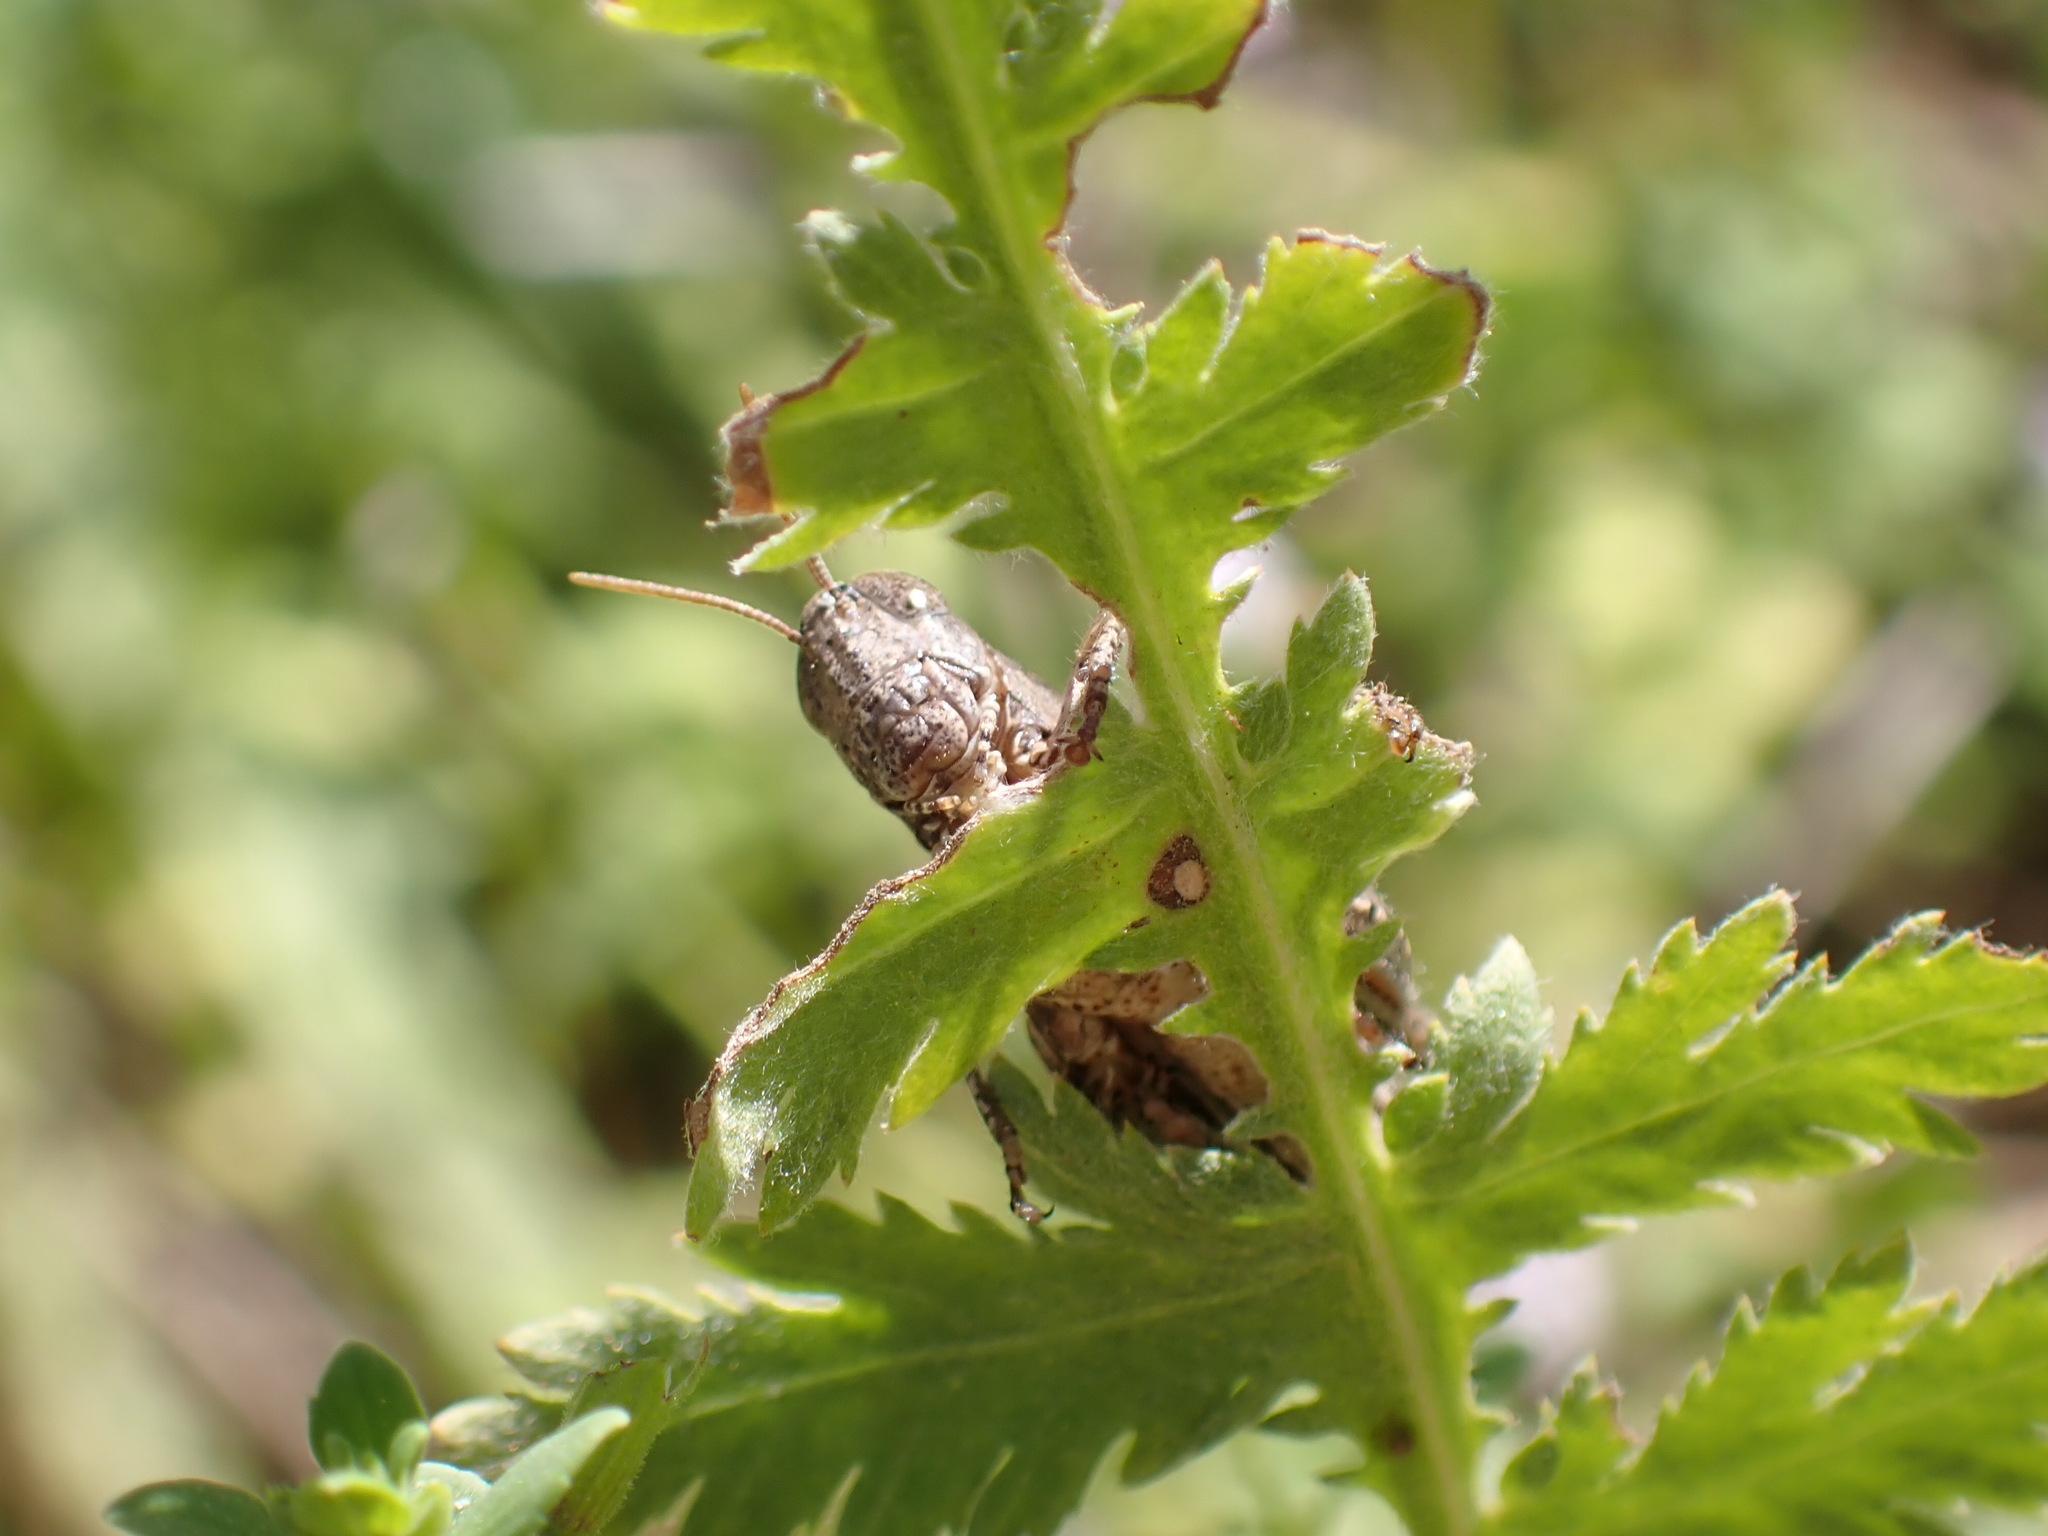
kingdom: Animalia
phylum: Arthropoda
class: Insecta
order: Orthoptera
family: Acrididae
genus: Pezotettix
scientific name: Pezotettix giornae
